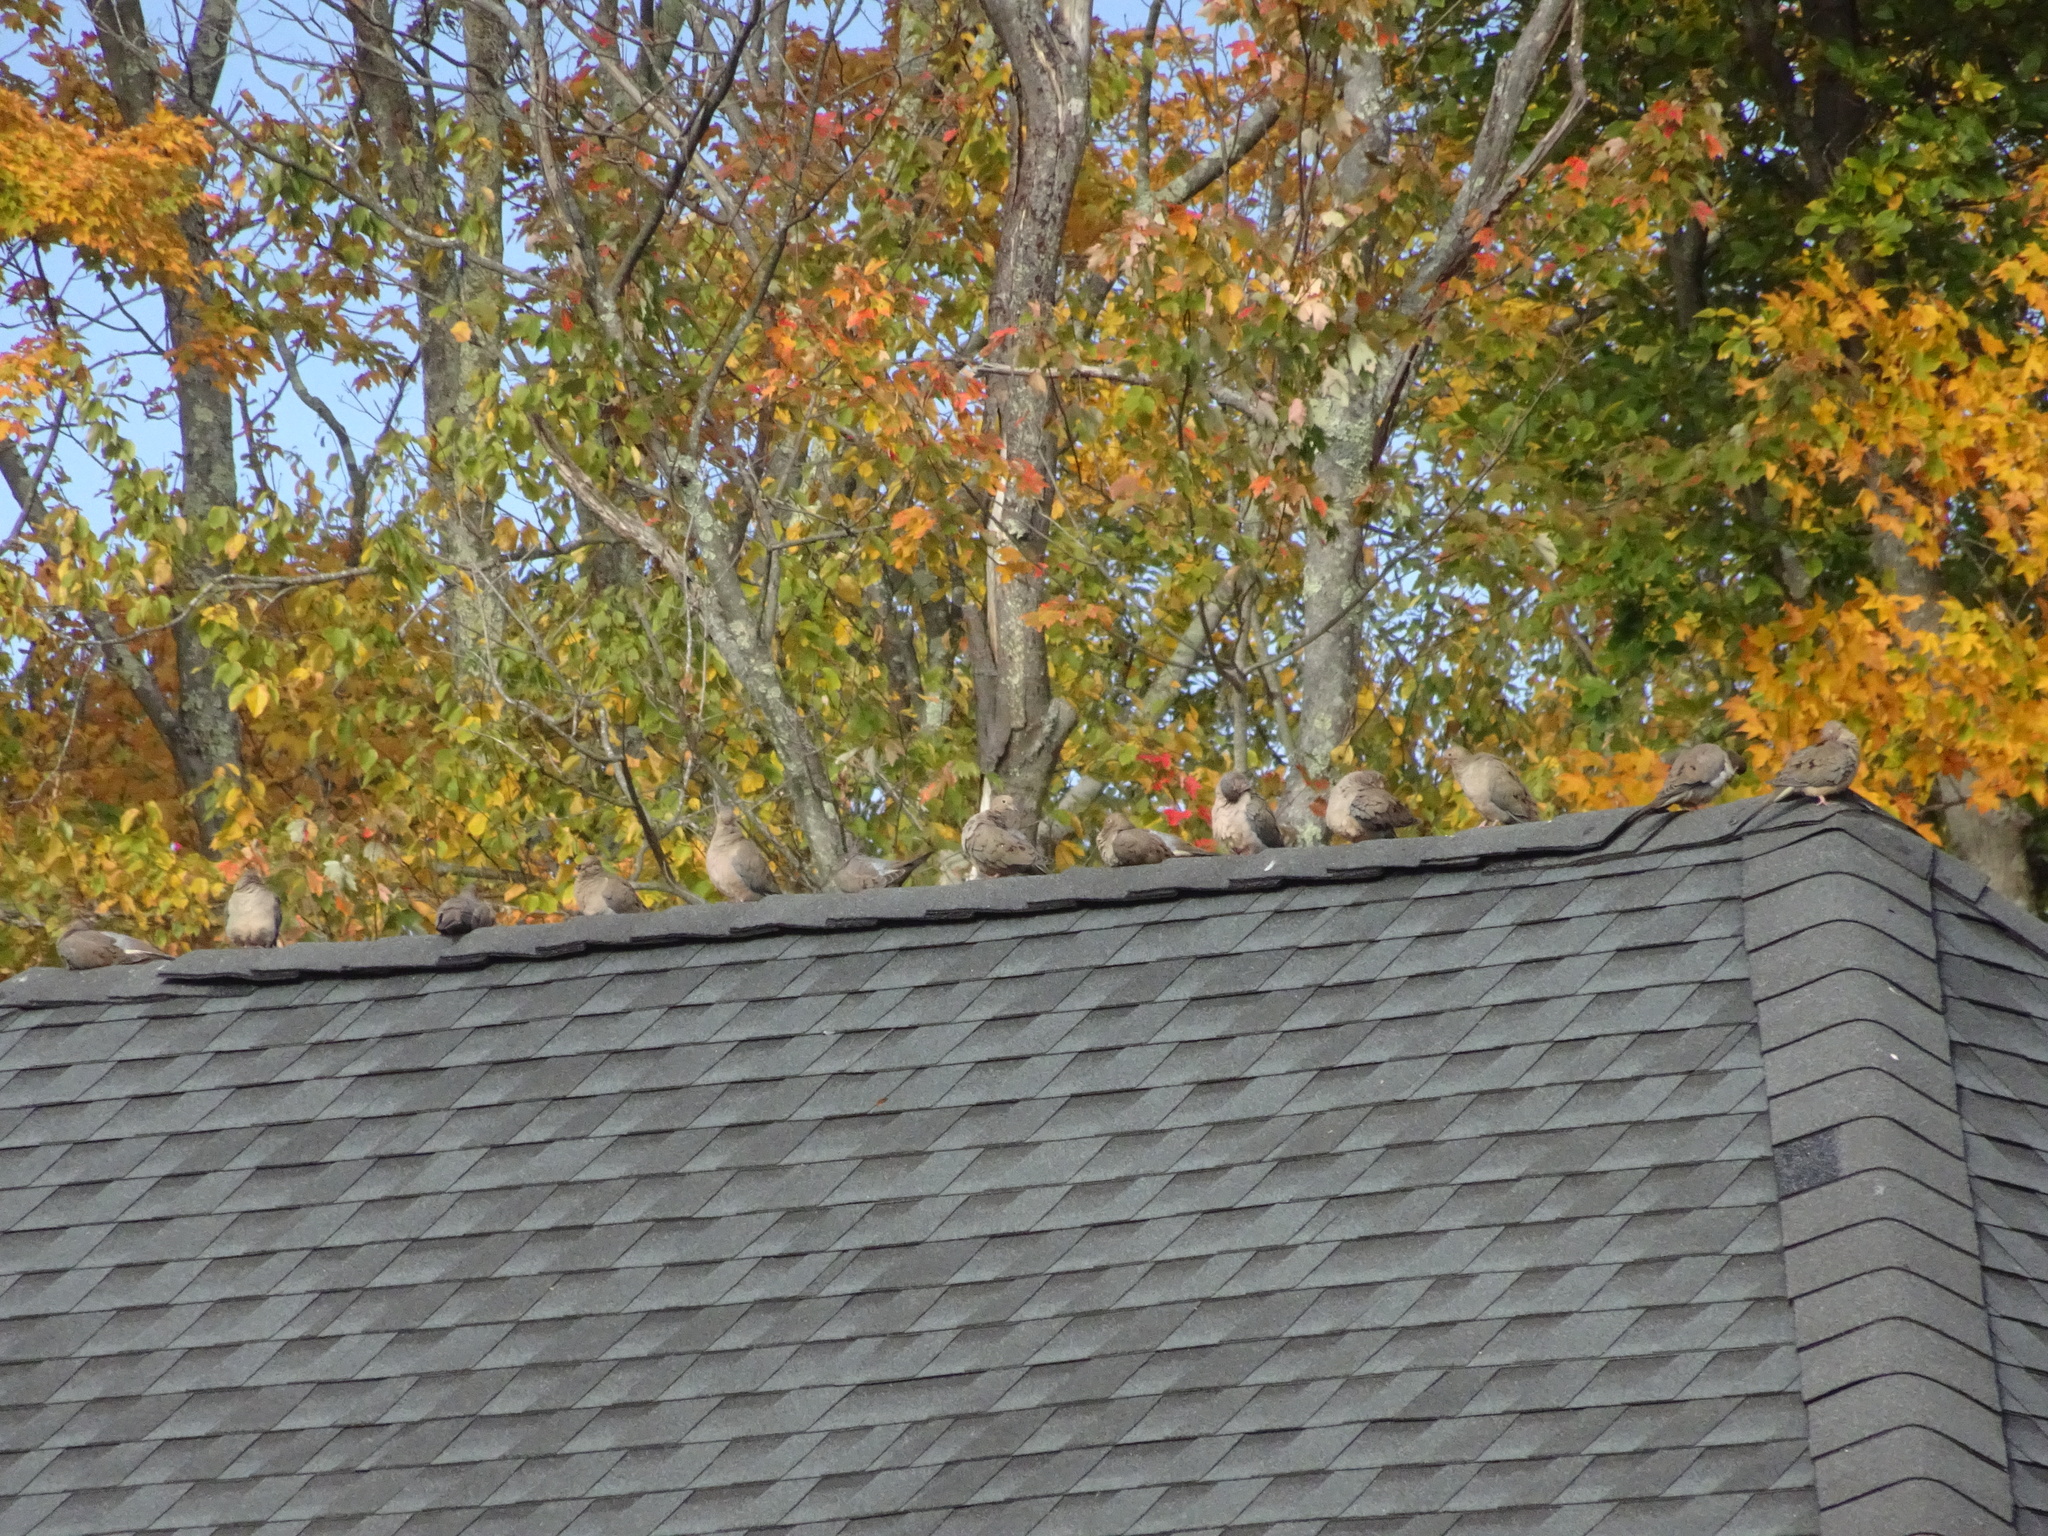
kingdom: Animalia
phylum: Chordata
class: Aves
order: Columbiformes
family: Columbidae
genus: Zenaida
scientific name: Zenaida macroura
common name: Mourning dove
